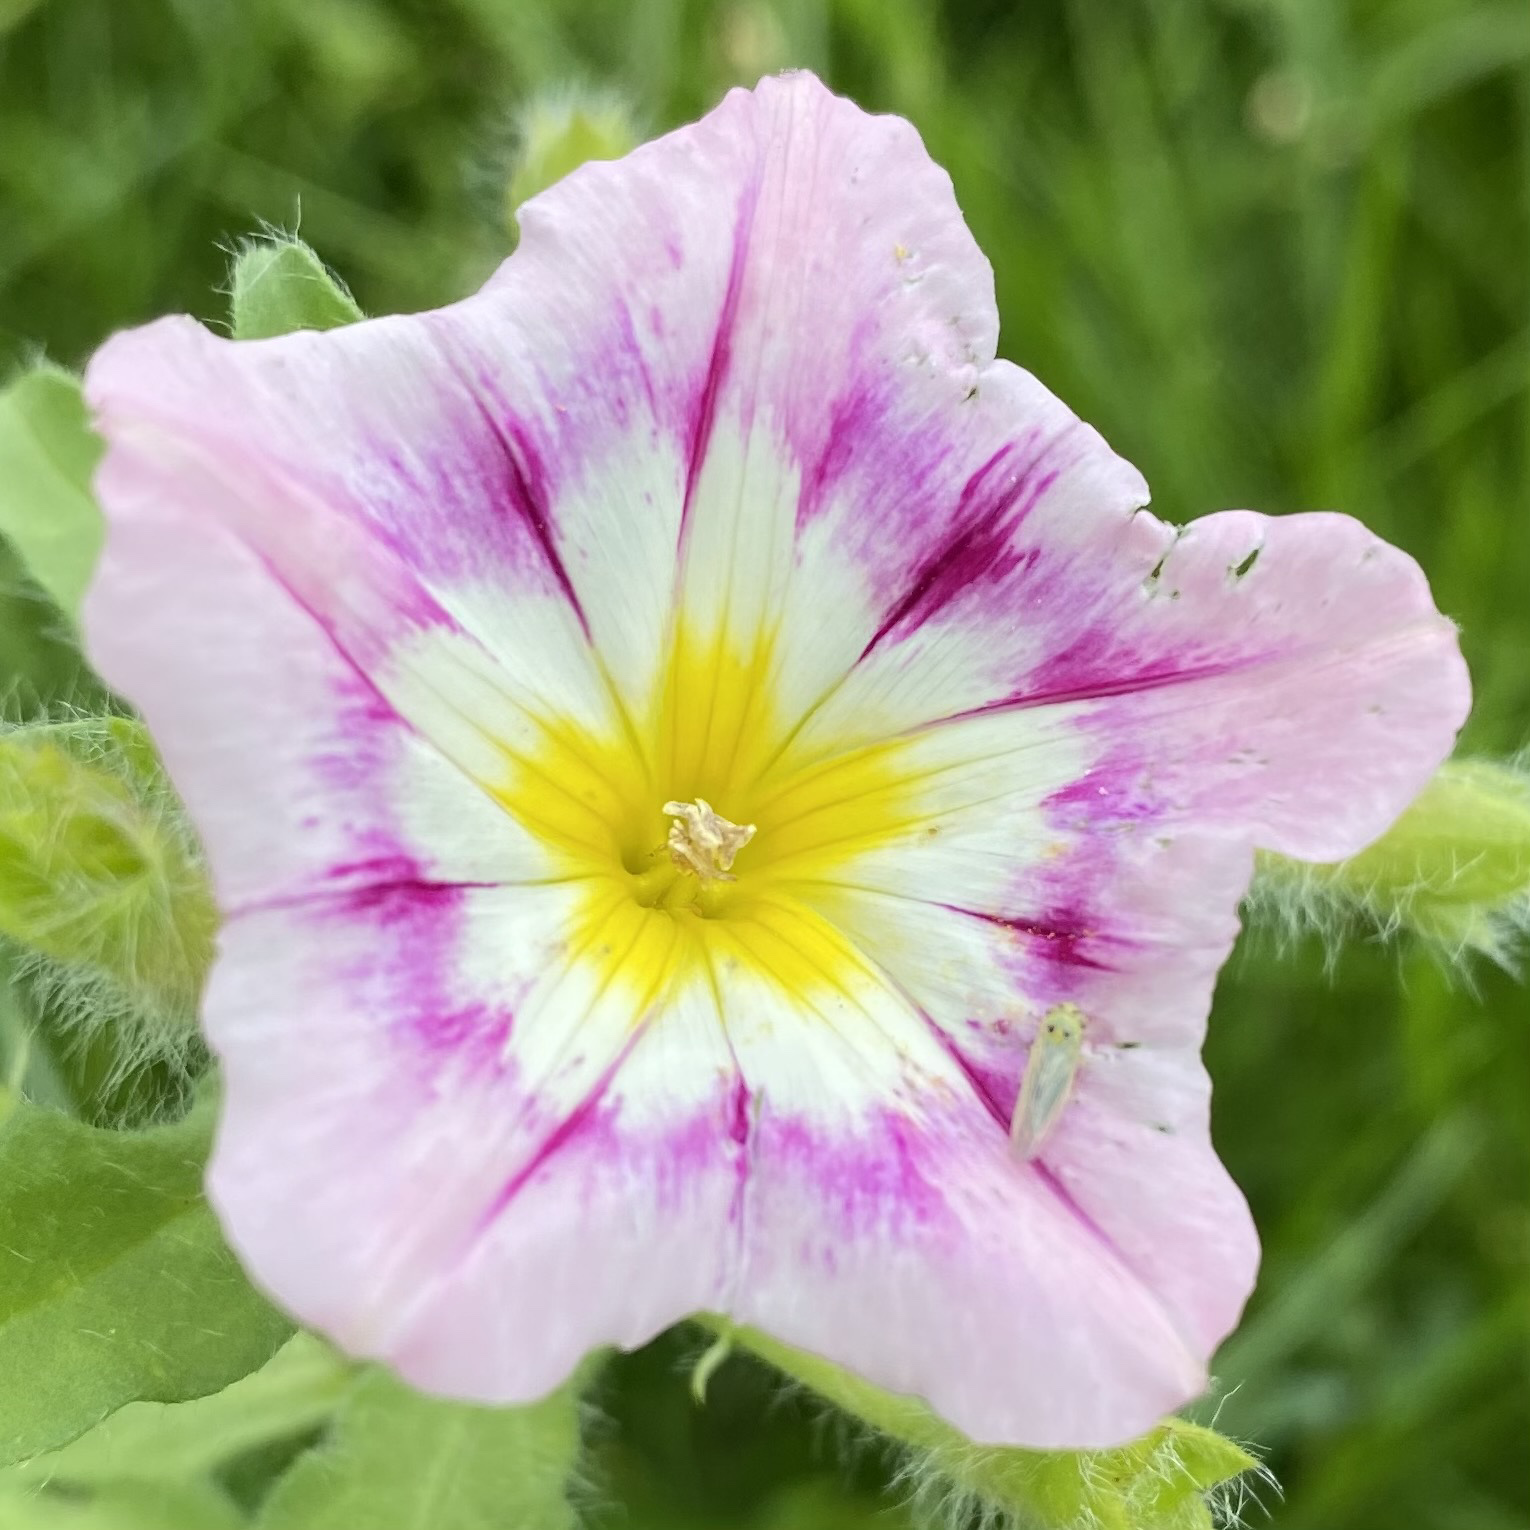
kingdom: Plantae
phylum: Tracheophyta
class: Magnoliopsida
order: Solanales
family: Convolvulaceae
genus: Convolvulus
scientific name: Convolvulus tricolor
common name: Dwarf morning-glory
